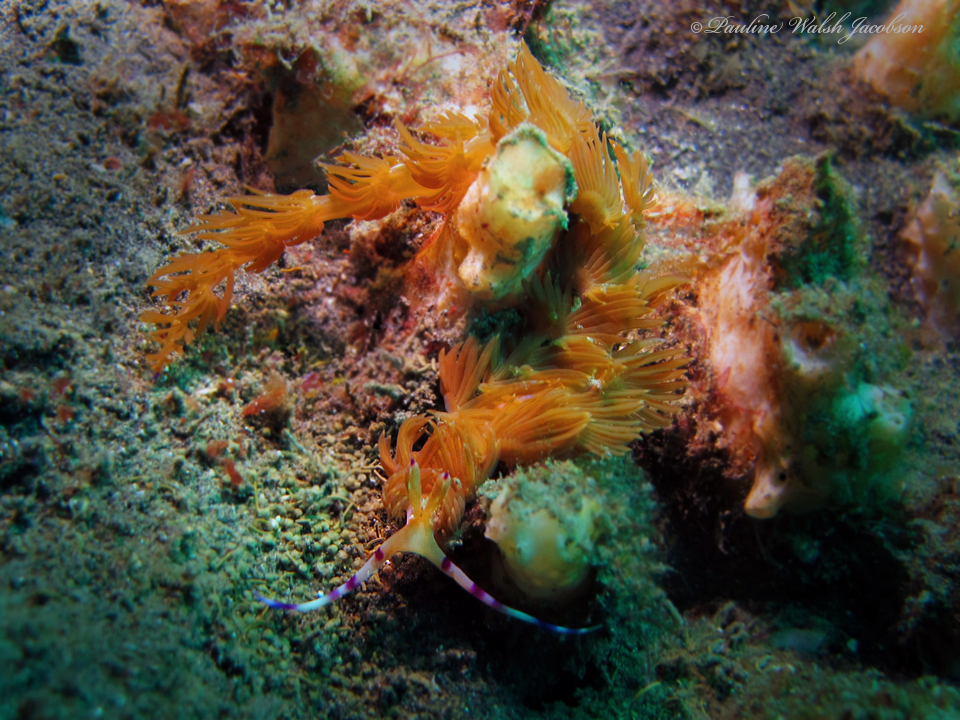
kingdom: Animalia
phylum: Mollusca
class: Gastropoda
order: Nudibranchia
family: Facelinidae
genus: Pteraeolidia
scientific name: Pteraeolidia semperi
